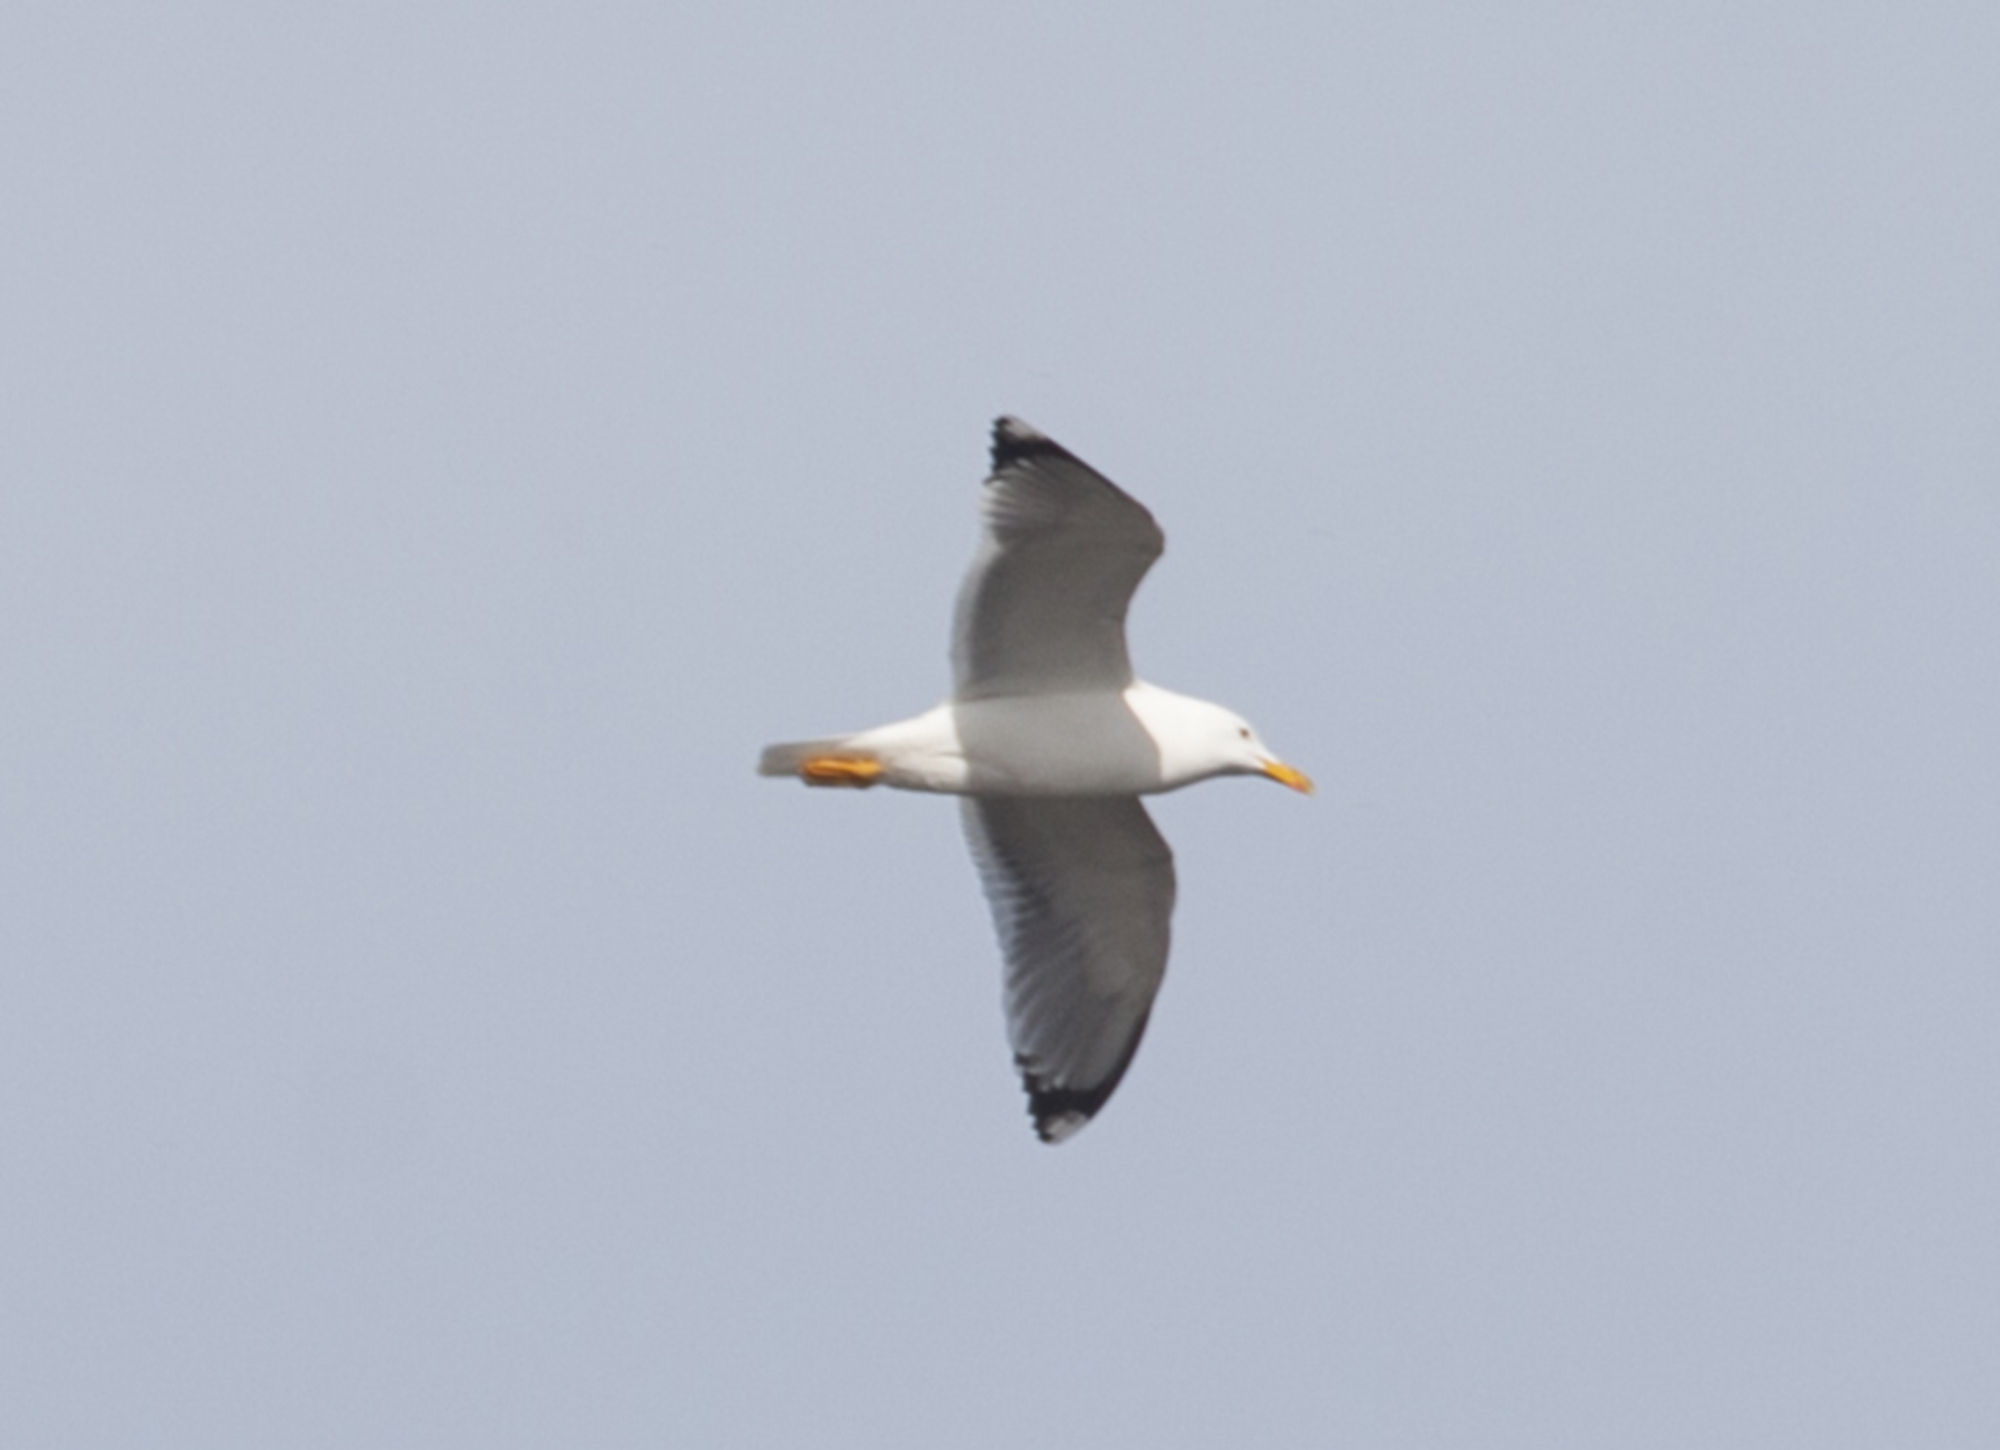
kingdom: Animalia
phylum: Chordata
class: Aves
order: Charadriiformes
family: Laridae
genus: Larus
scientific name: Larus cachinnans
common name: Caspian gull
